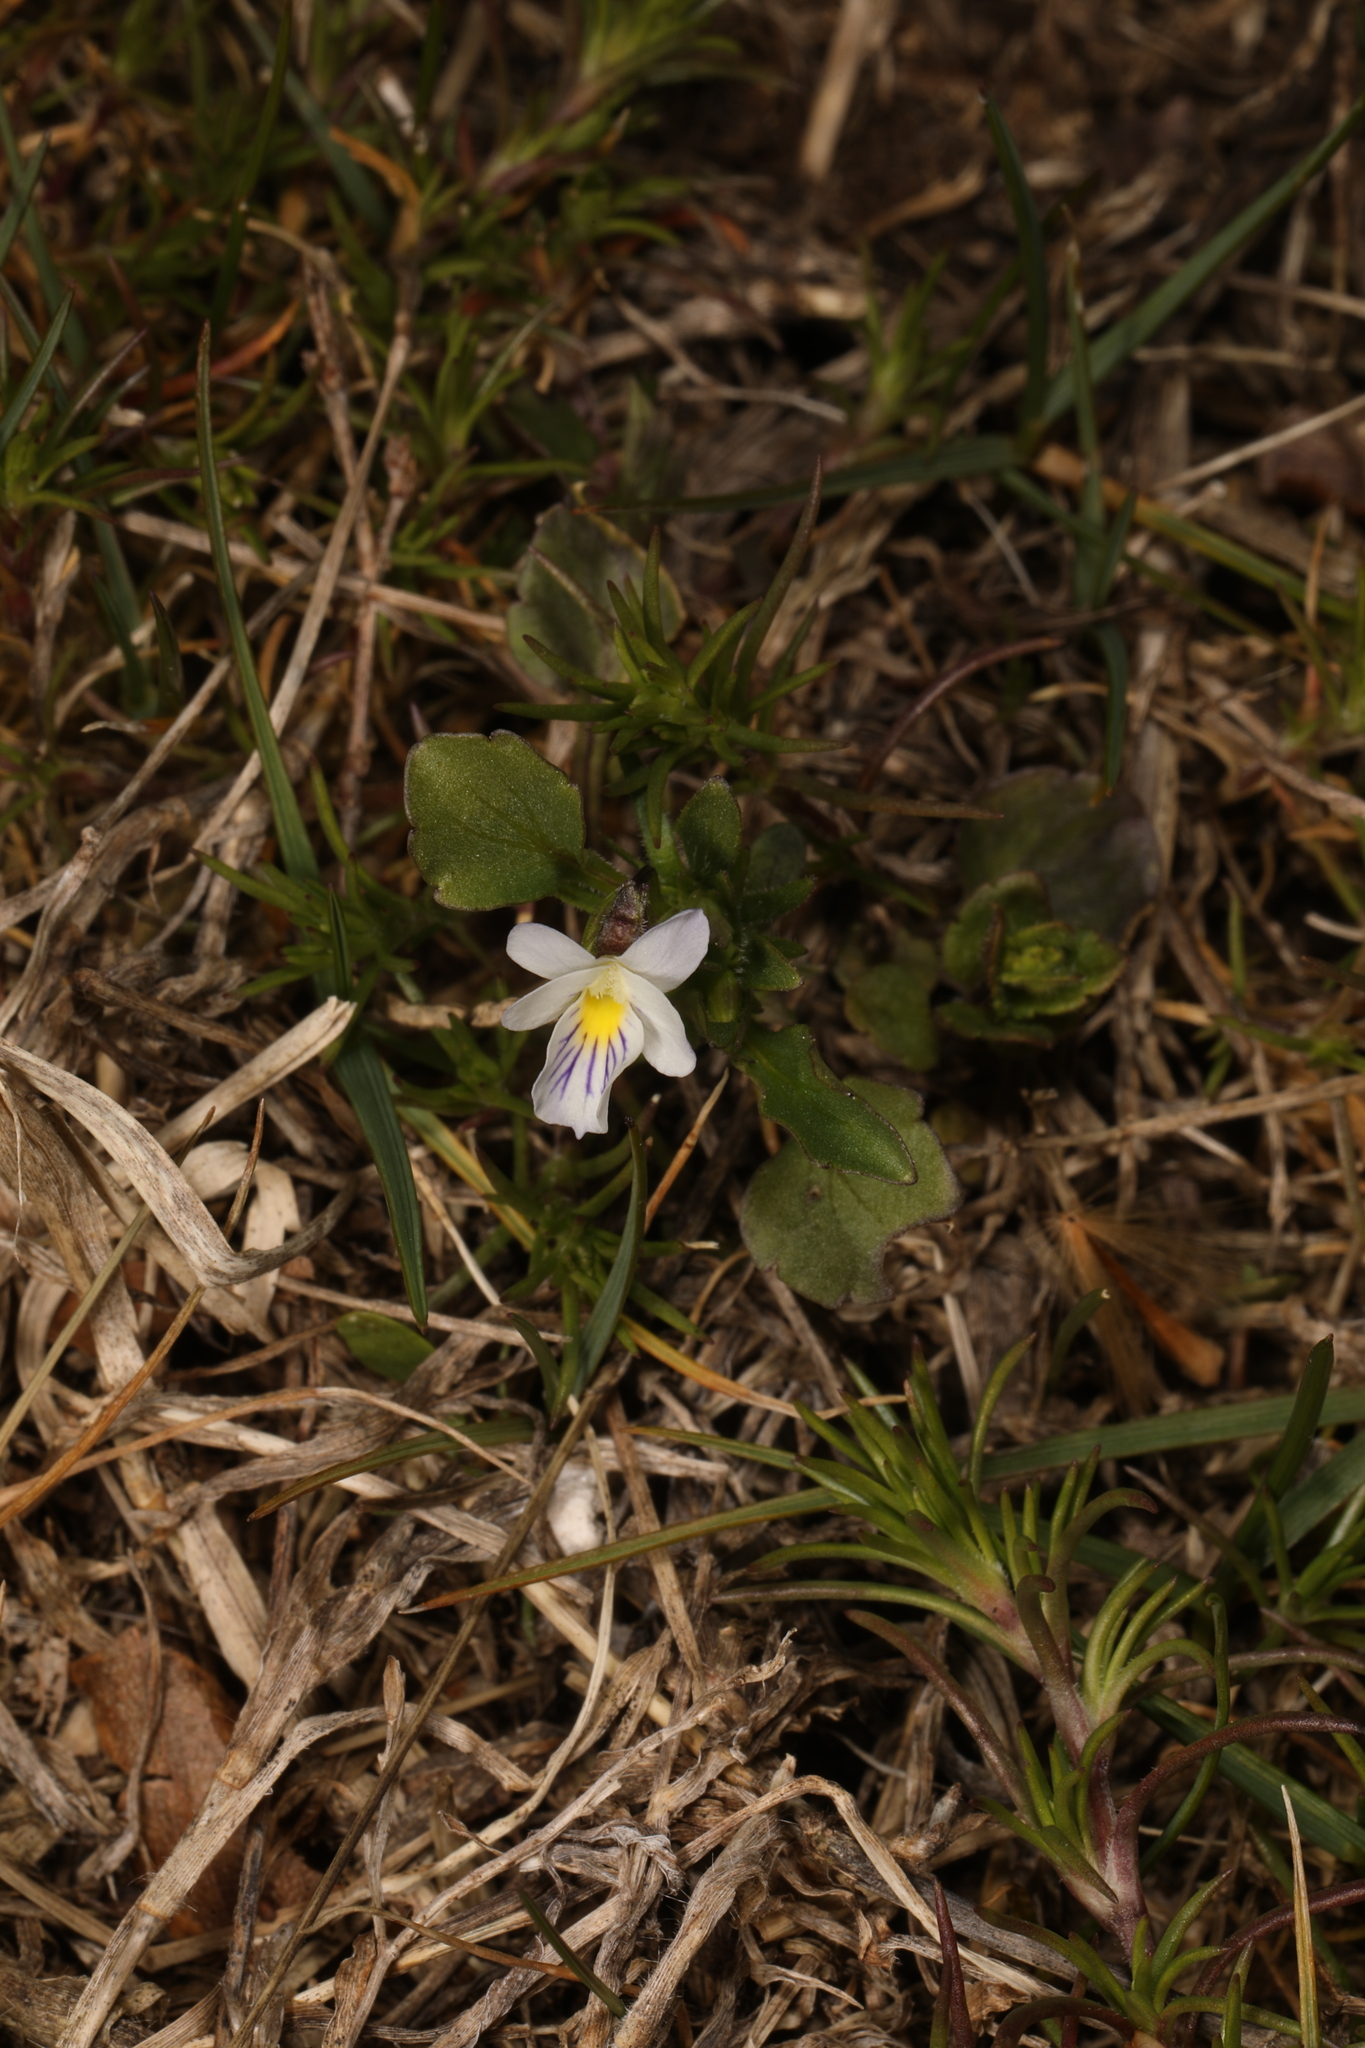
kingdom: Plantae
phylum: Tracheophyta
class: Magnoliopsida
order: Malpighiales
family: Violaceae
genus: Viola
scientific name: Viola rafinesquei
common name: American field pansy
